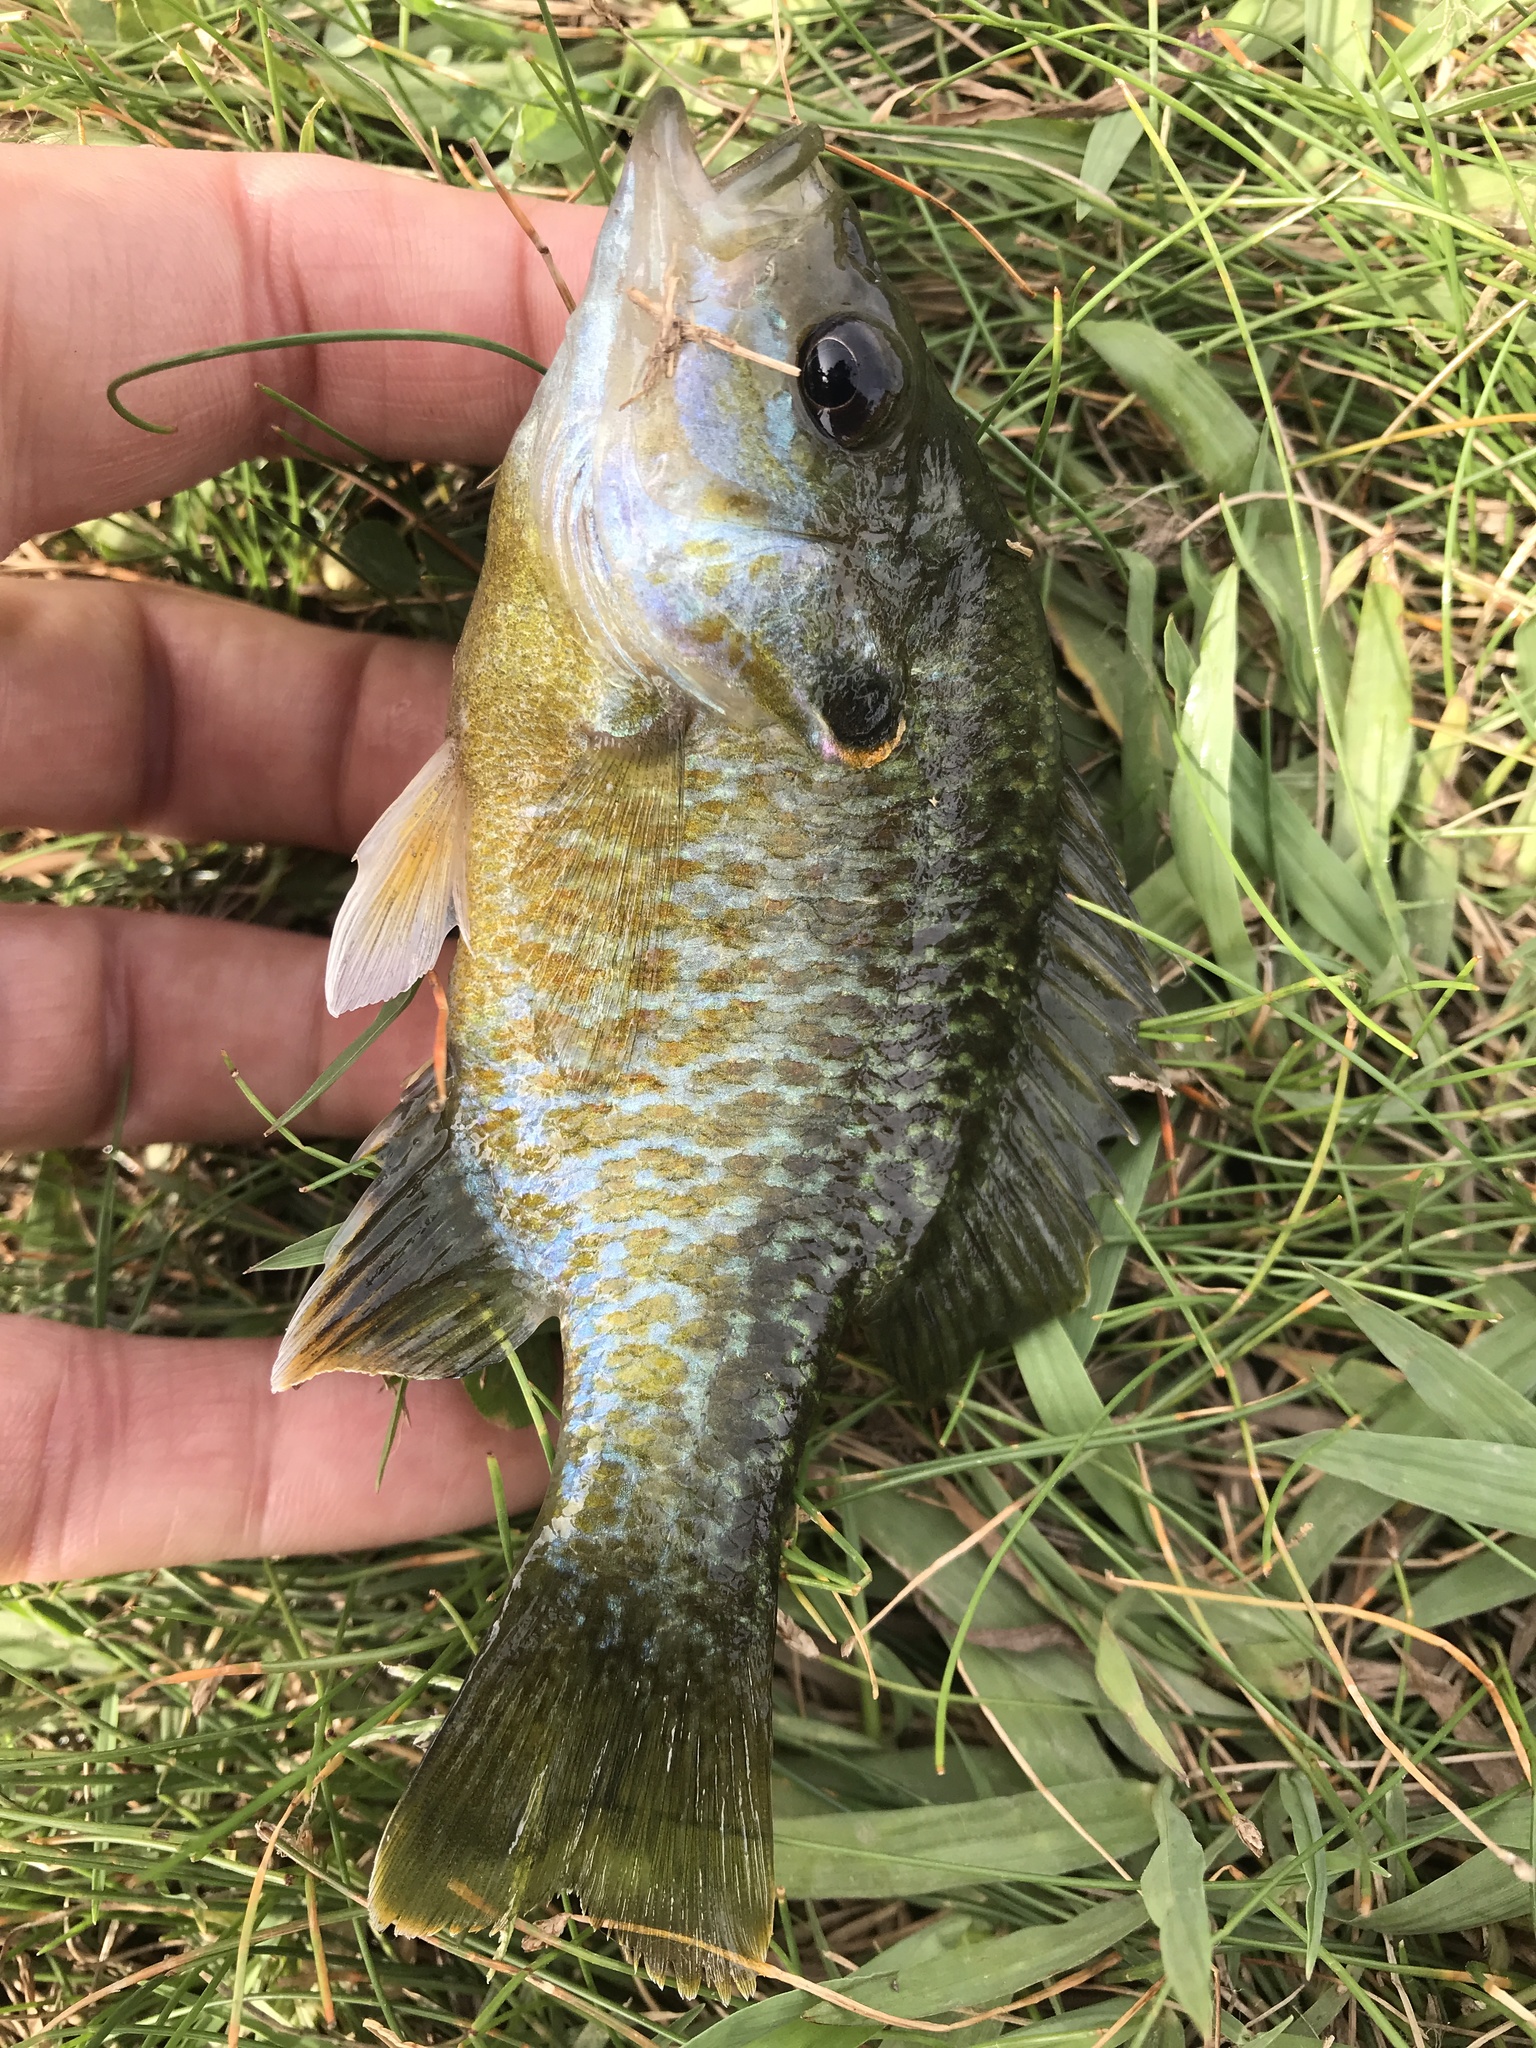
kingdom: Animalia
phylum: Chordata
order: Perciformes
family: Centrarchidae
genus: Lepomis
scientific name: Lepomis
